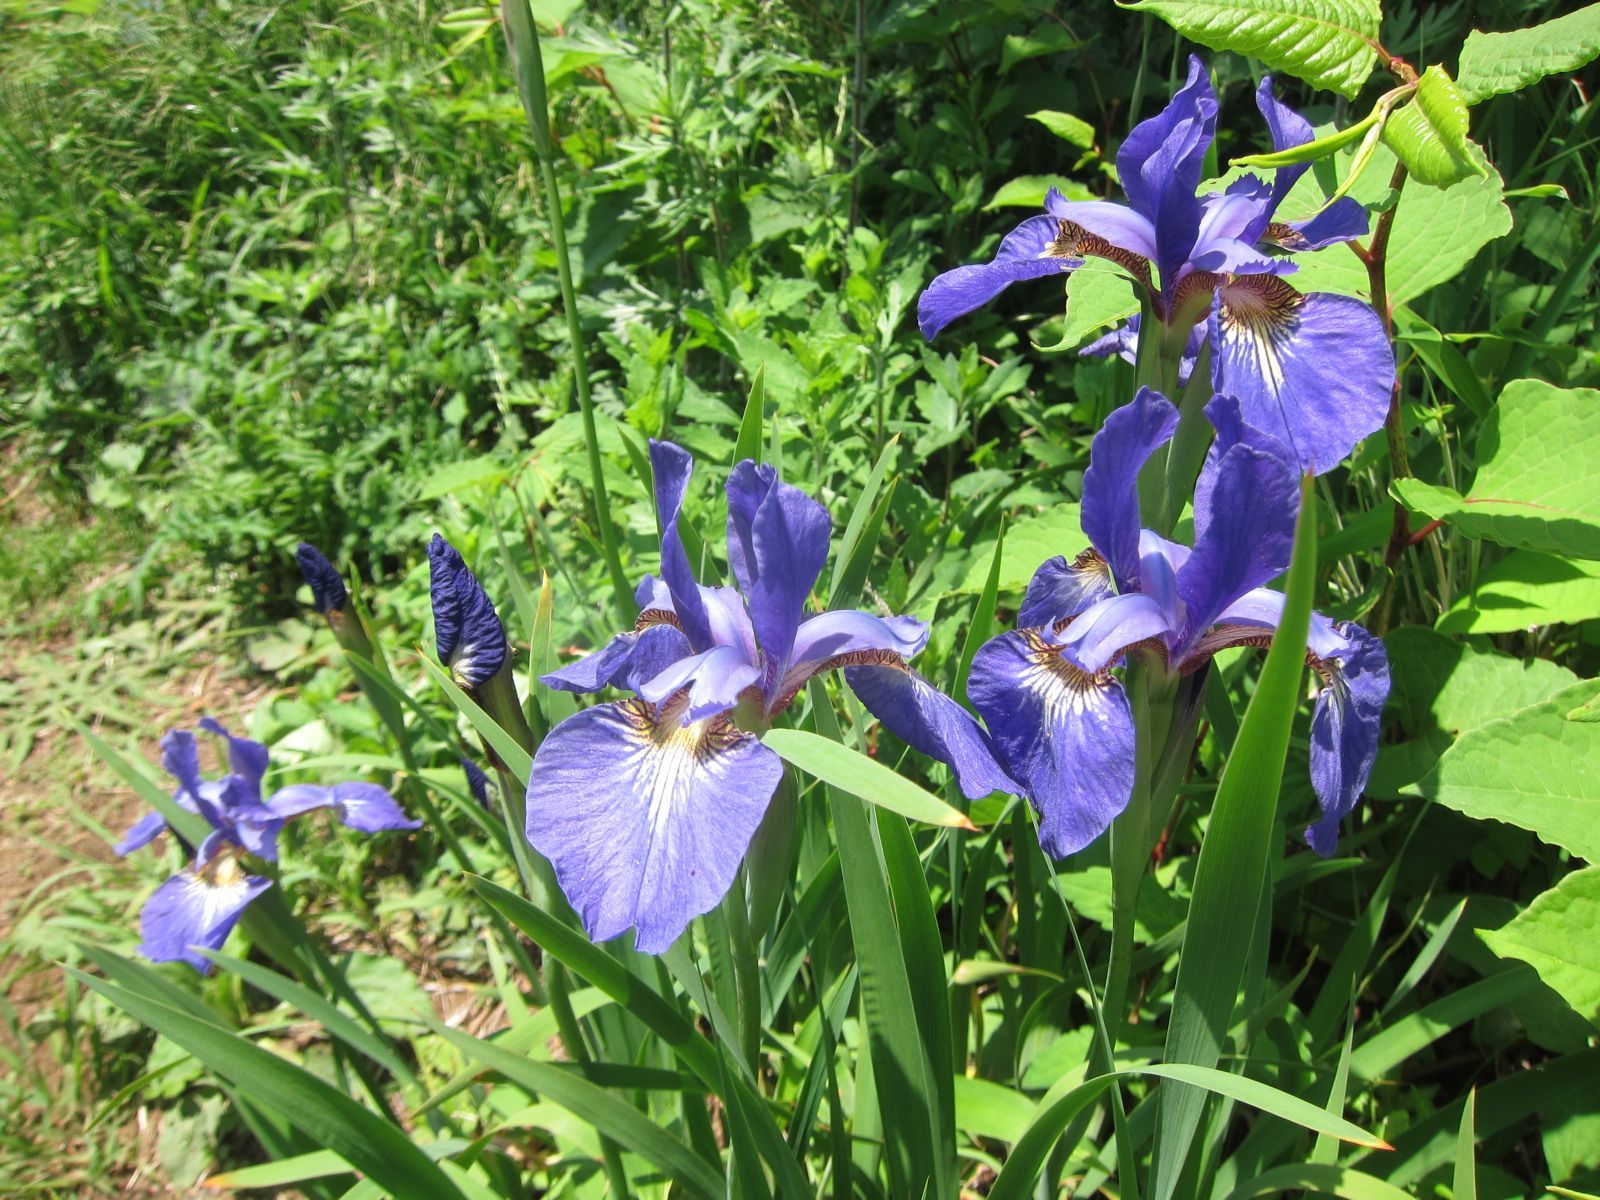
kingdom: Plantae
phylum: Tracheophyta
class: Liliopsida
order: Asparagales
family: Iridaceae
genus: Iris
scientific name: Iris sanguinea
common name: Blood iris
